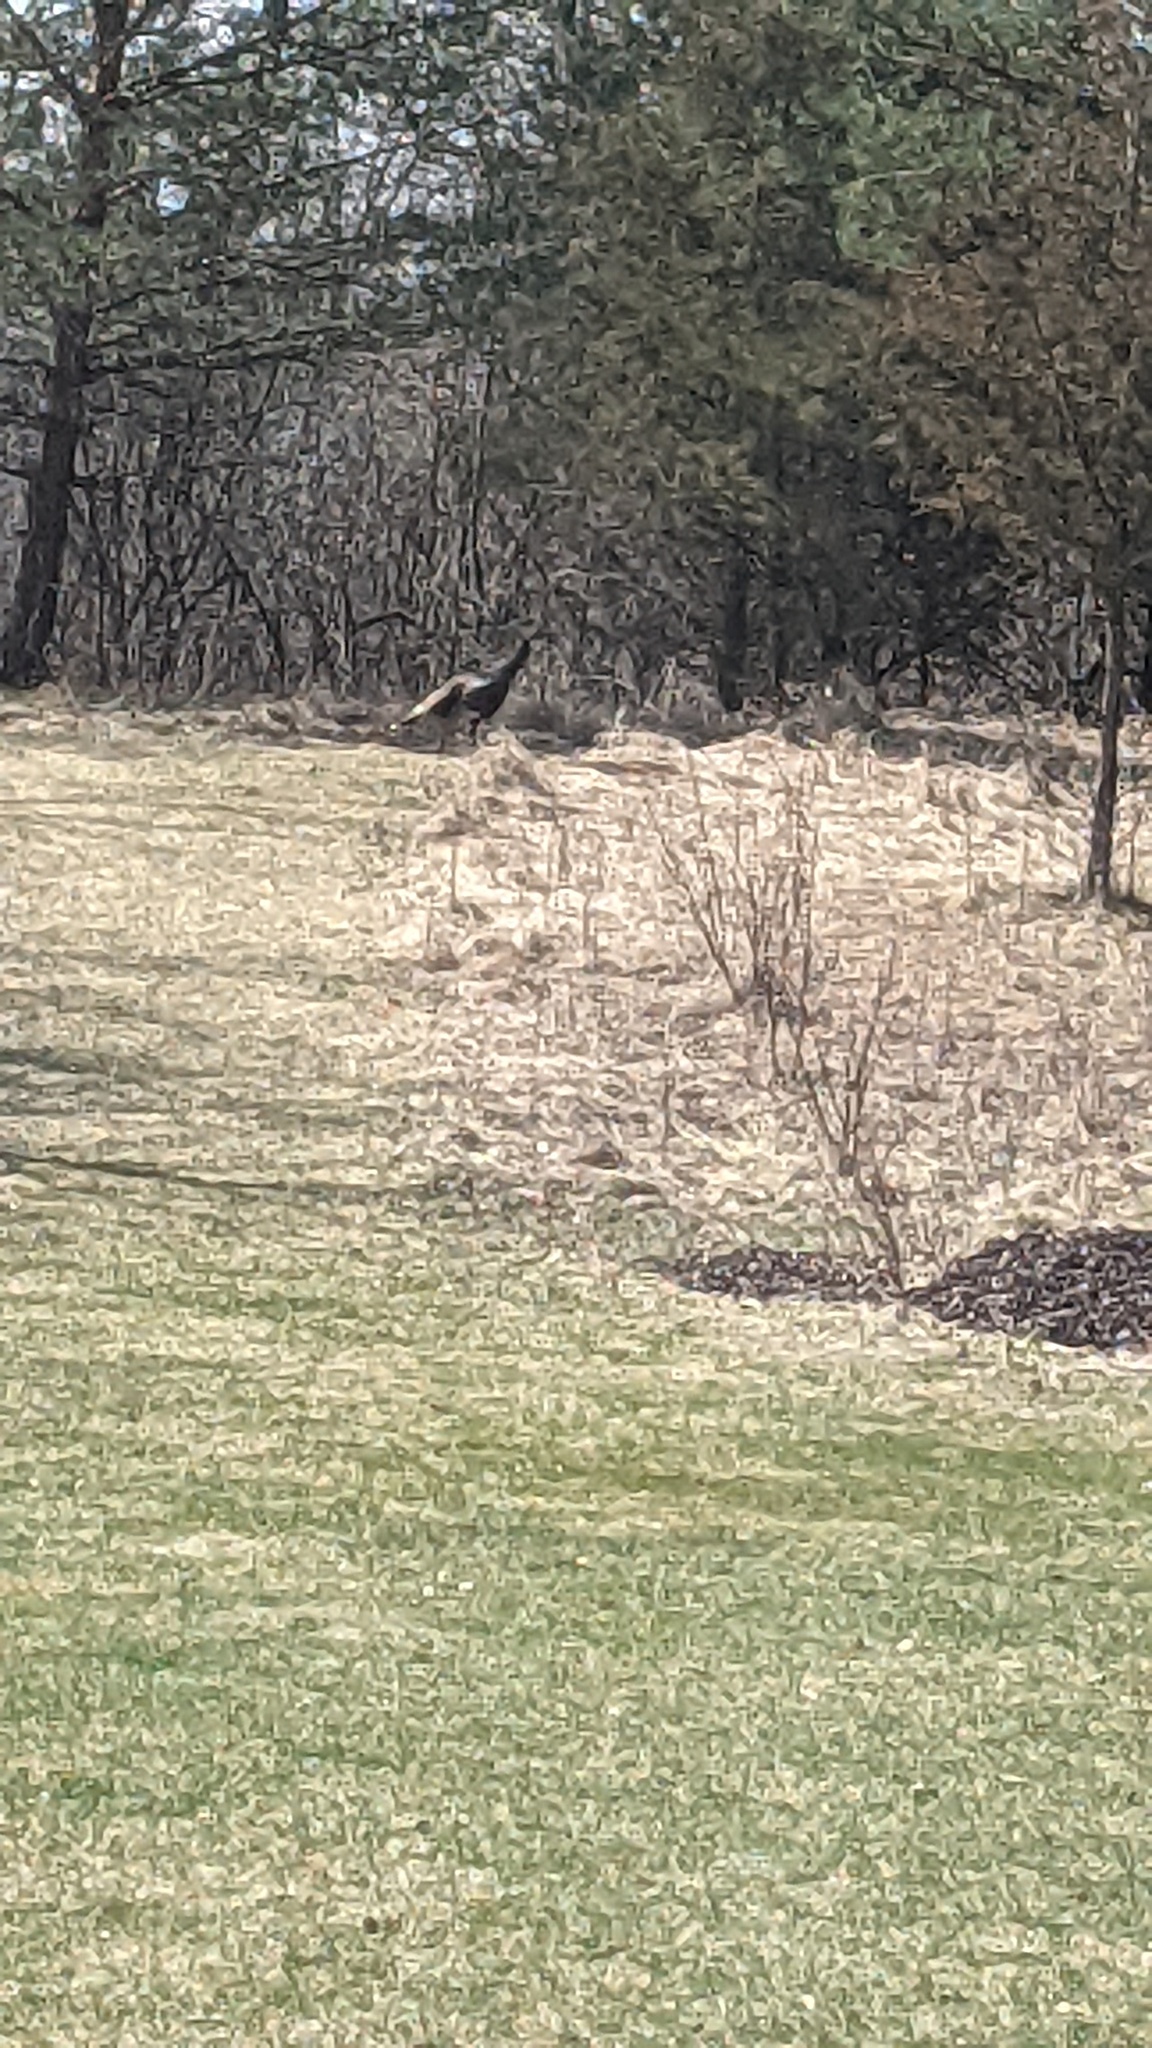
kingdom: Animalia
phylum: Chordata
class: Aves
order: Galliformes
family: Phasianidae
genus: Meleagris
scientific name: Meleagris gallopavo
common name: Wild turkey
